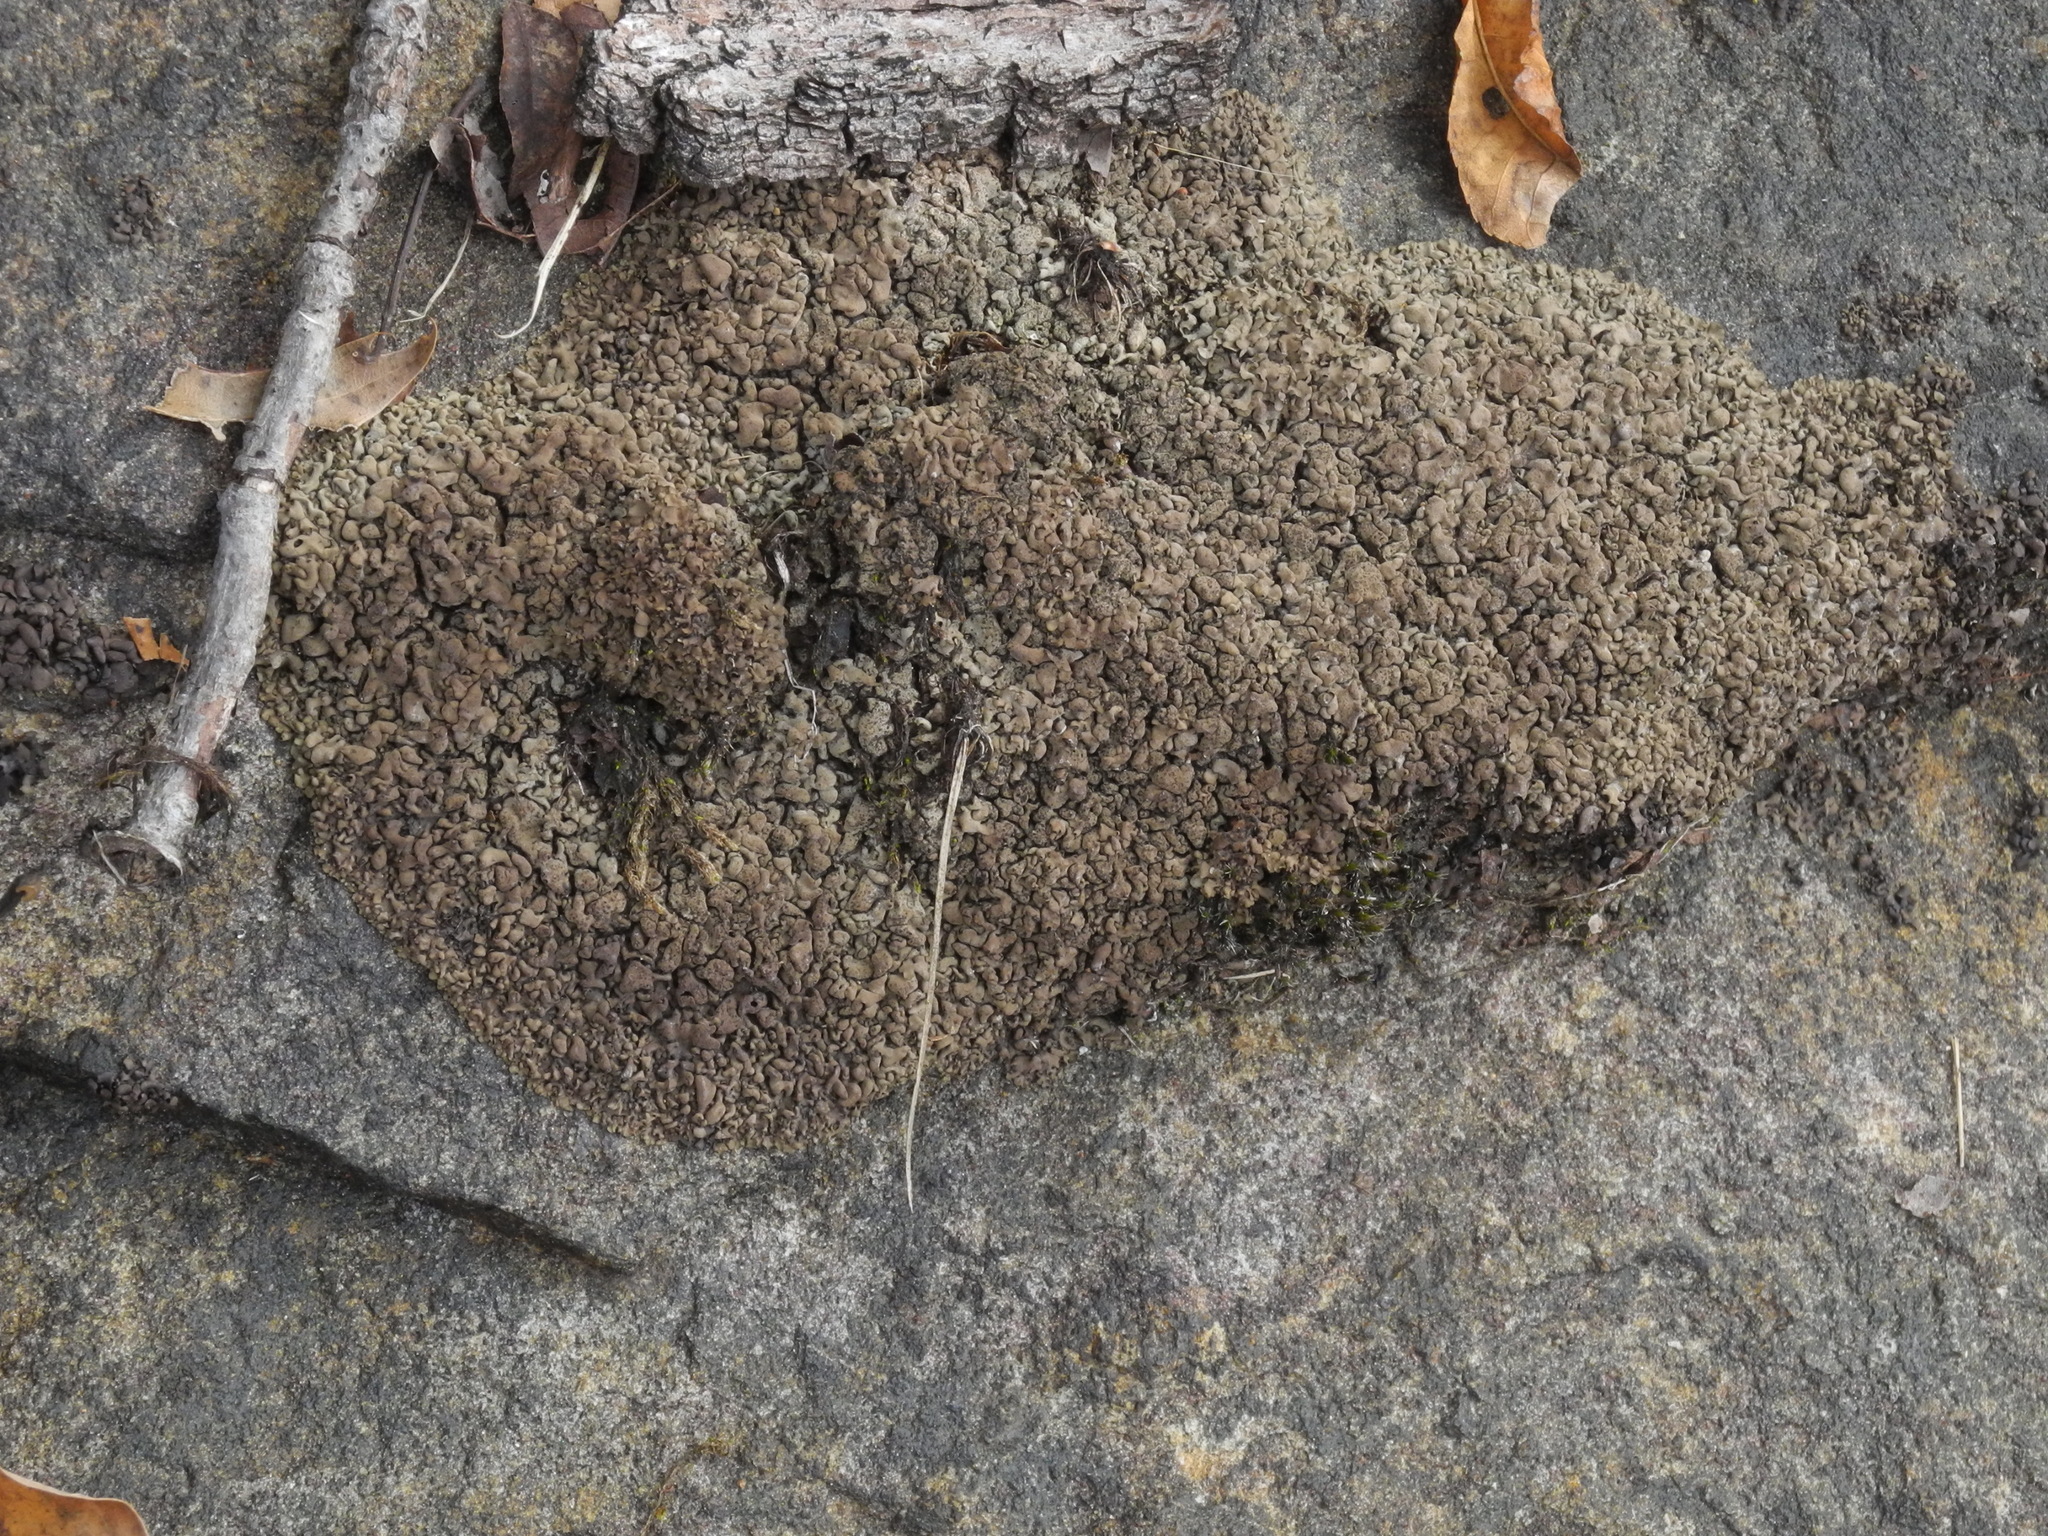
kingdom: Fungi
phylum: Ascomycota
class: Eurotiomycetes
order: Verrucariales
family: Verrucariaceae
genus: Dermatocarpon
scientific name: Dermatocarpon intestiniforme
